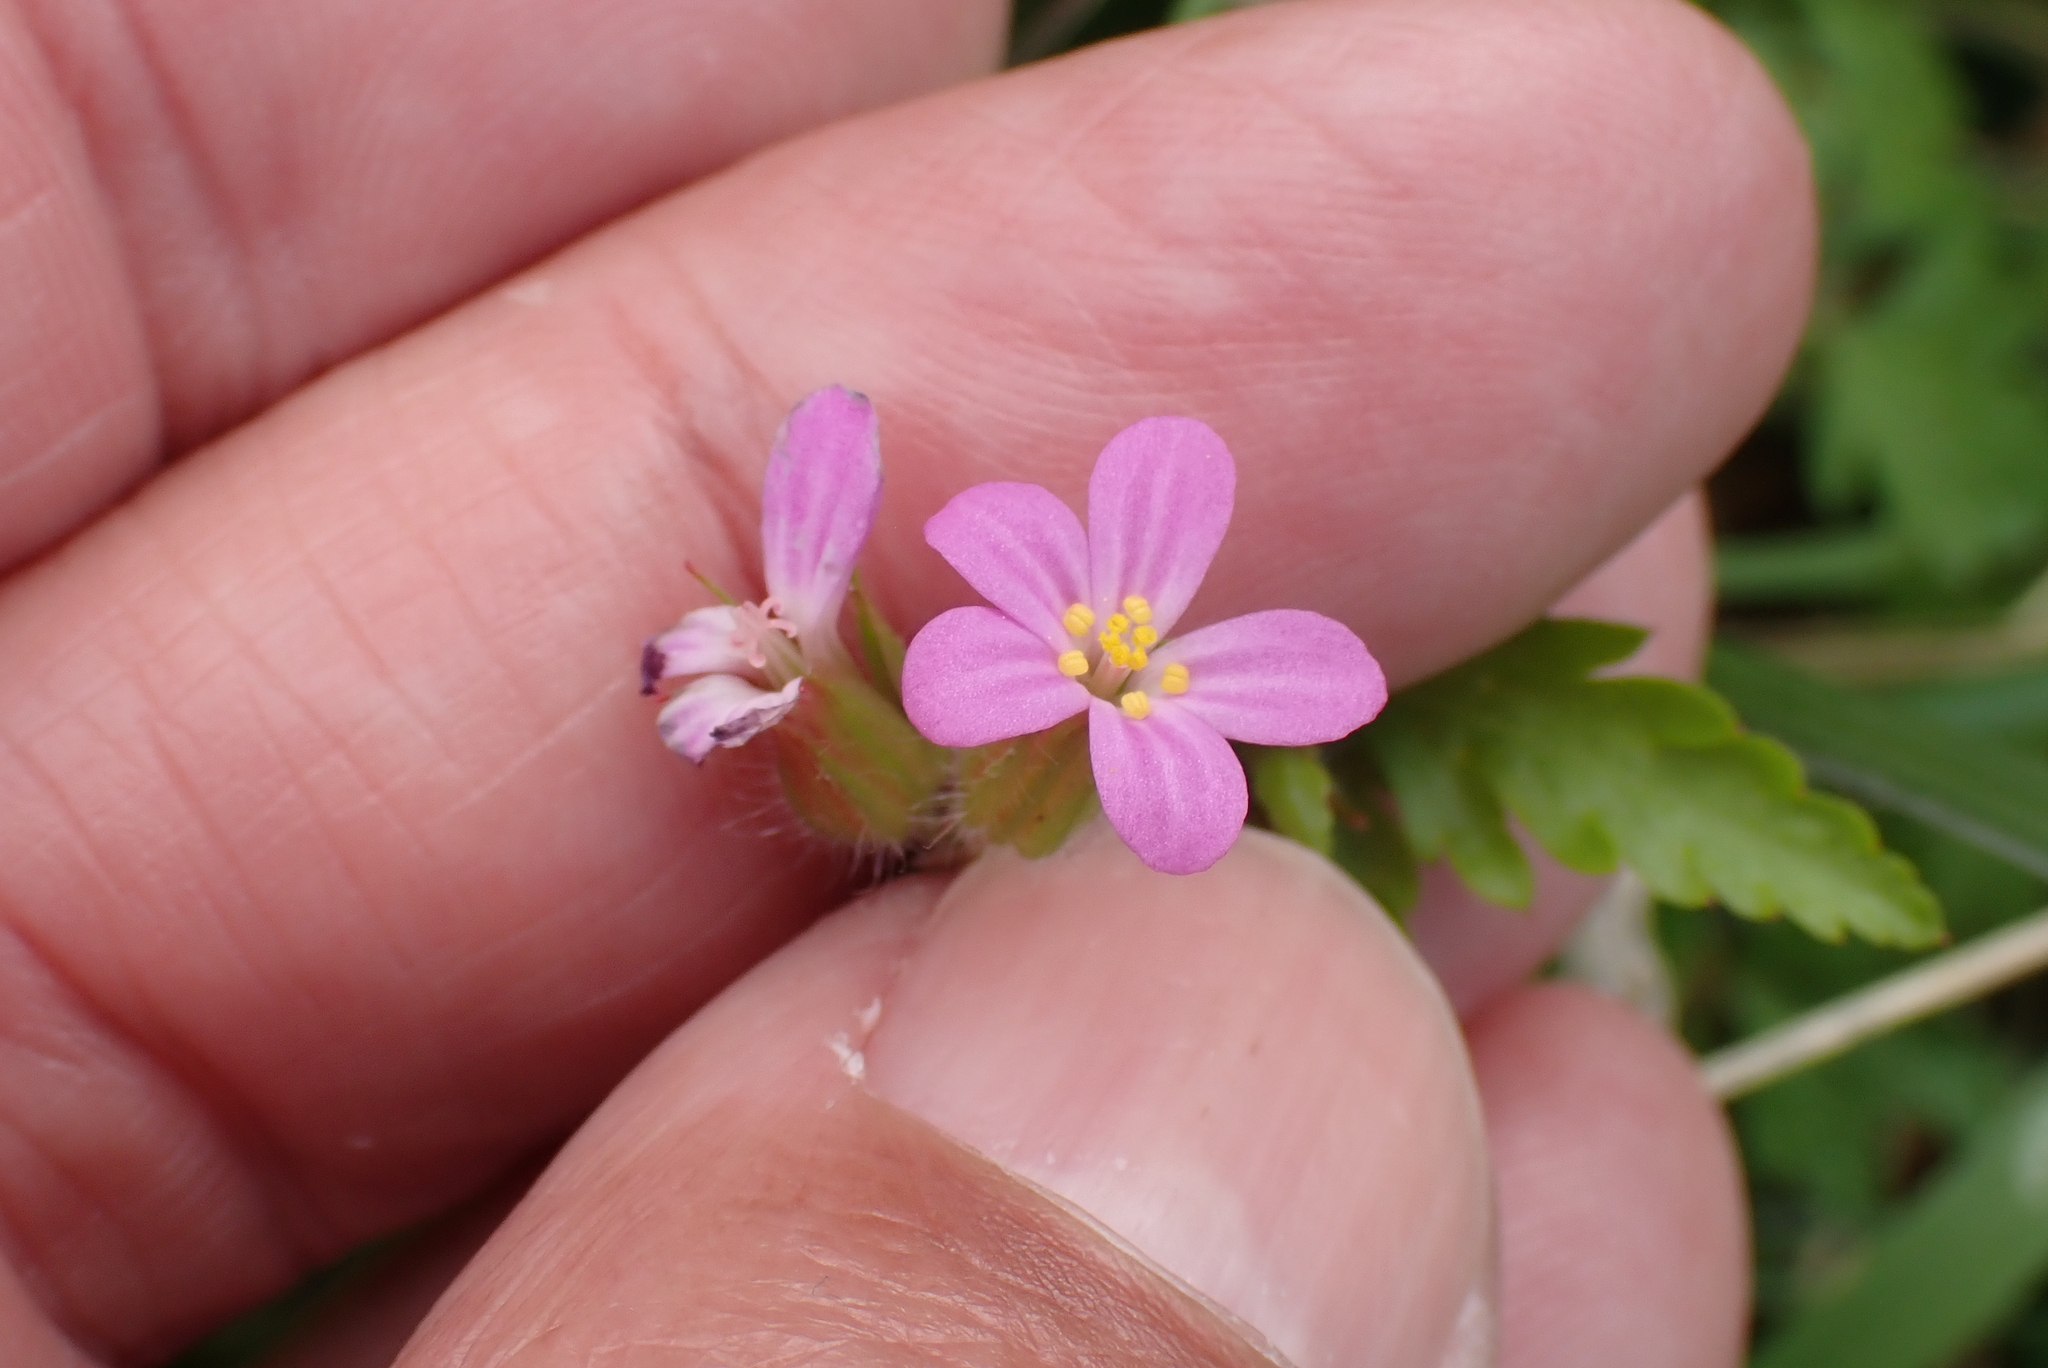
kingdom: Plantae
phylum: Tracheophyta
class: Magnoliopsida
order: Geraniales
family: Geraniaceae
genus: Geranium
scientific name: Geranium purpureum
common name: Little-robin
